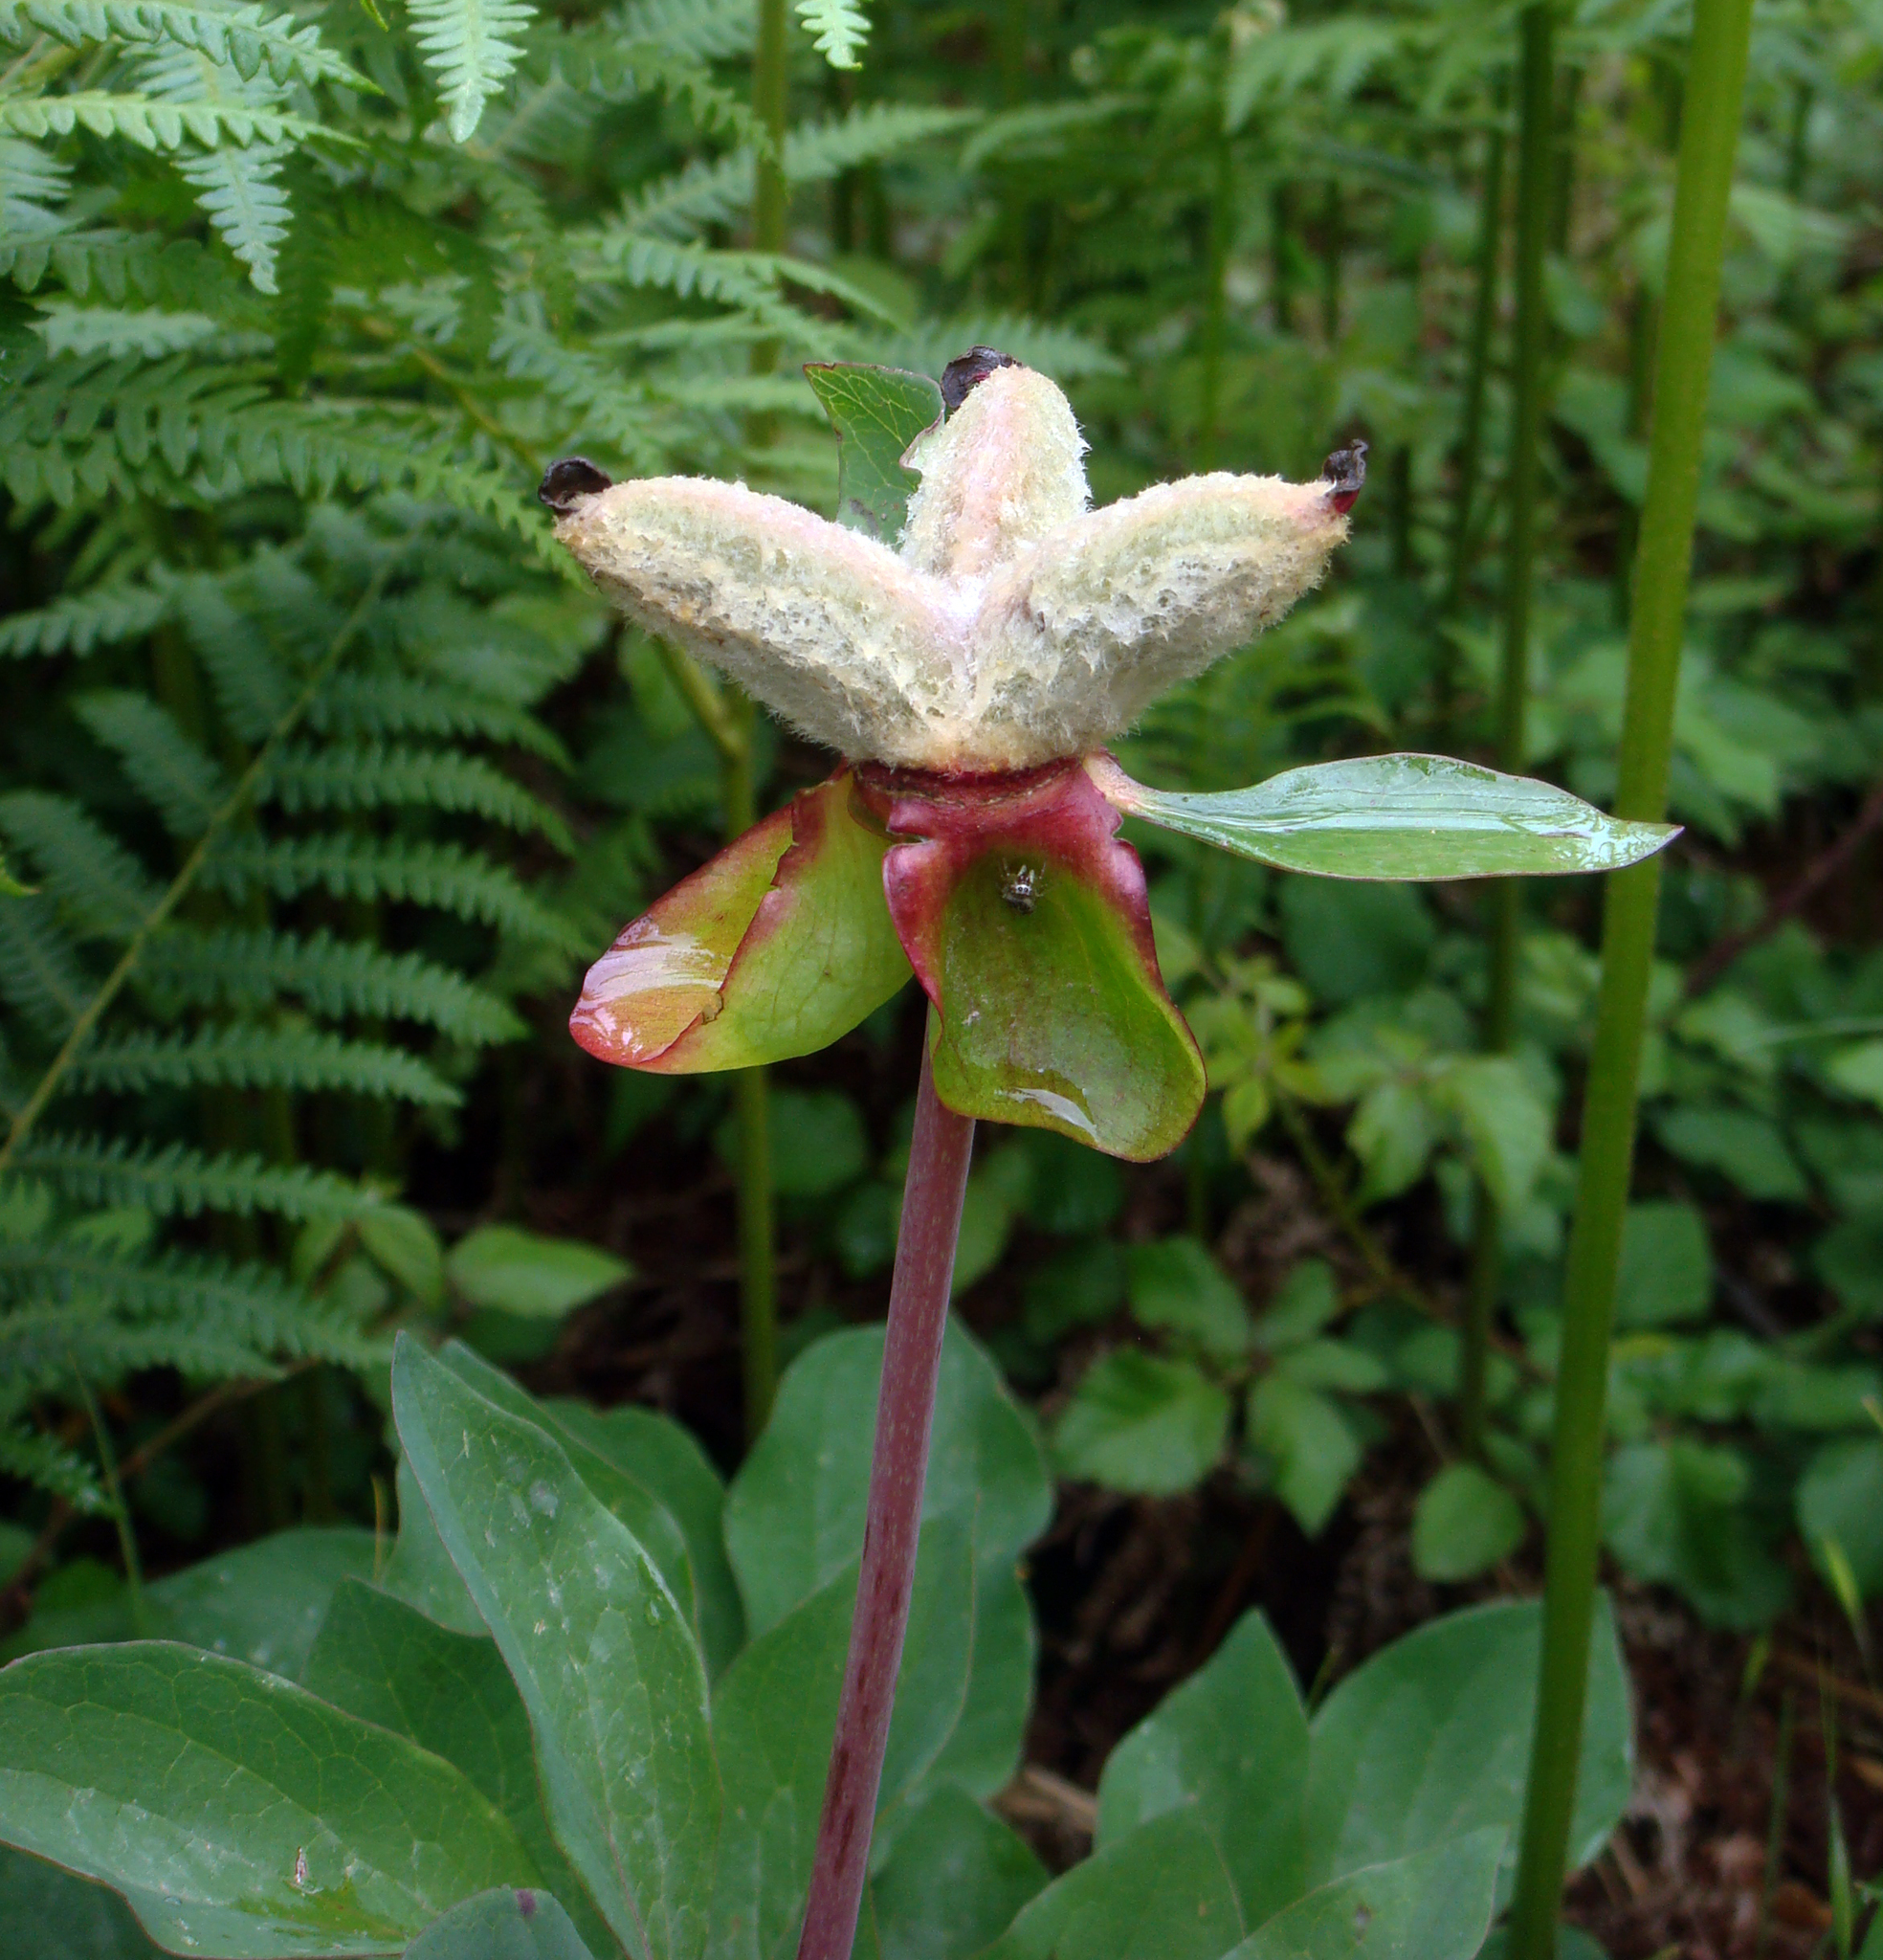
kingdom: Plantae
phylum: Tracheophyta
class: Magnoliopsida
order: Saxifragales
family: Paeoniaceae
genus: Paeonia
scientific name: Paeonia corsica
